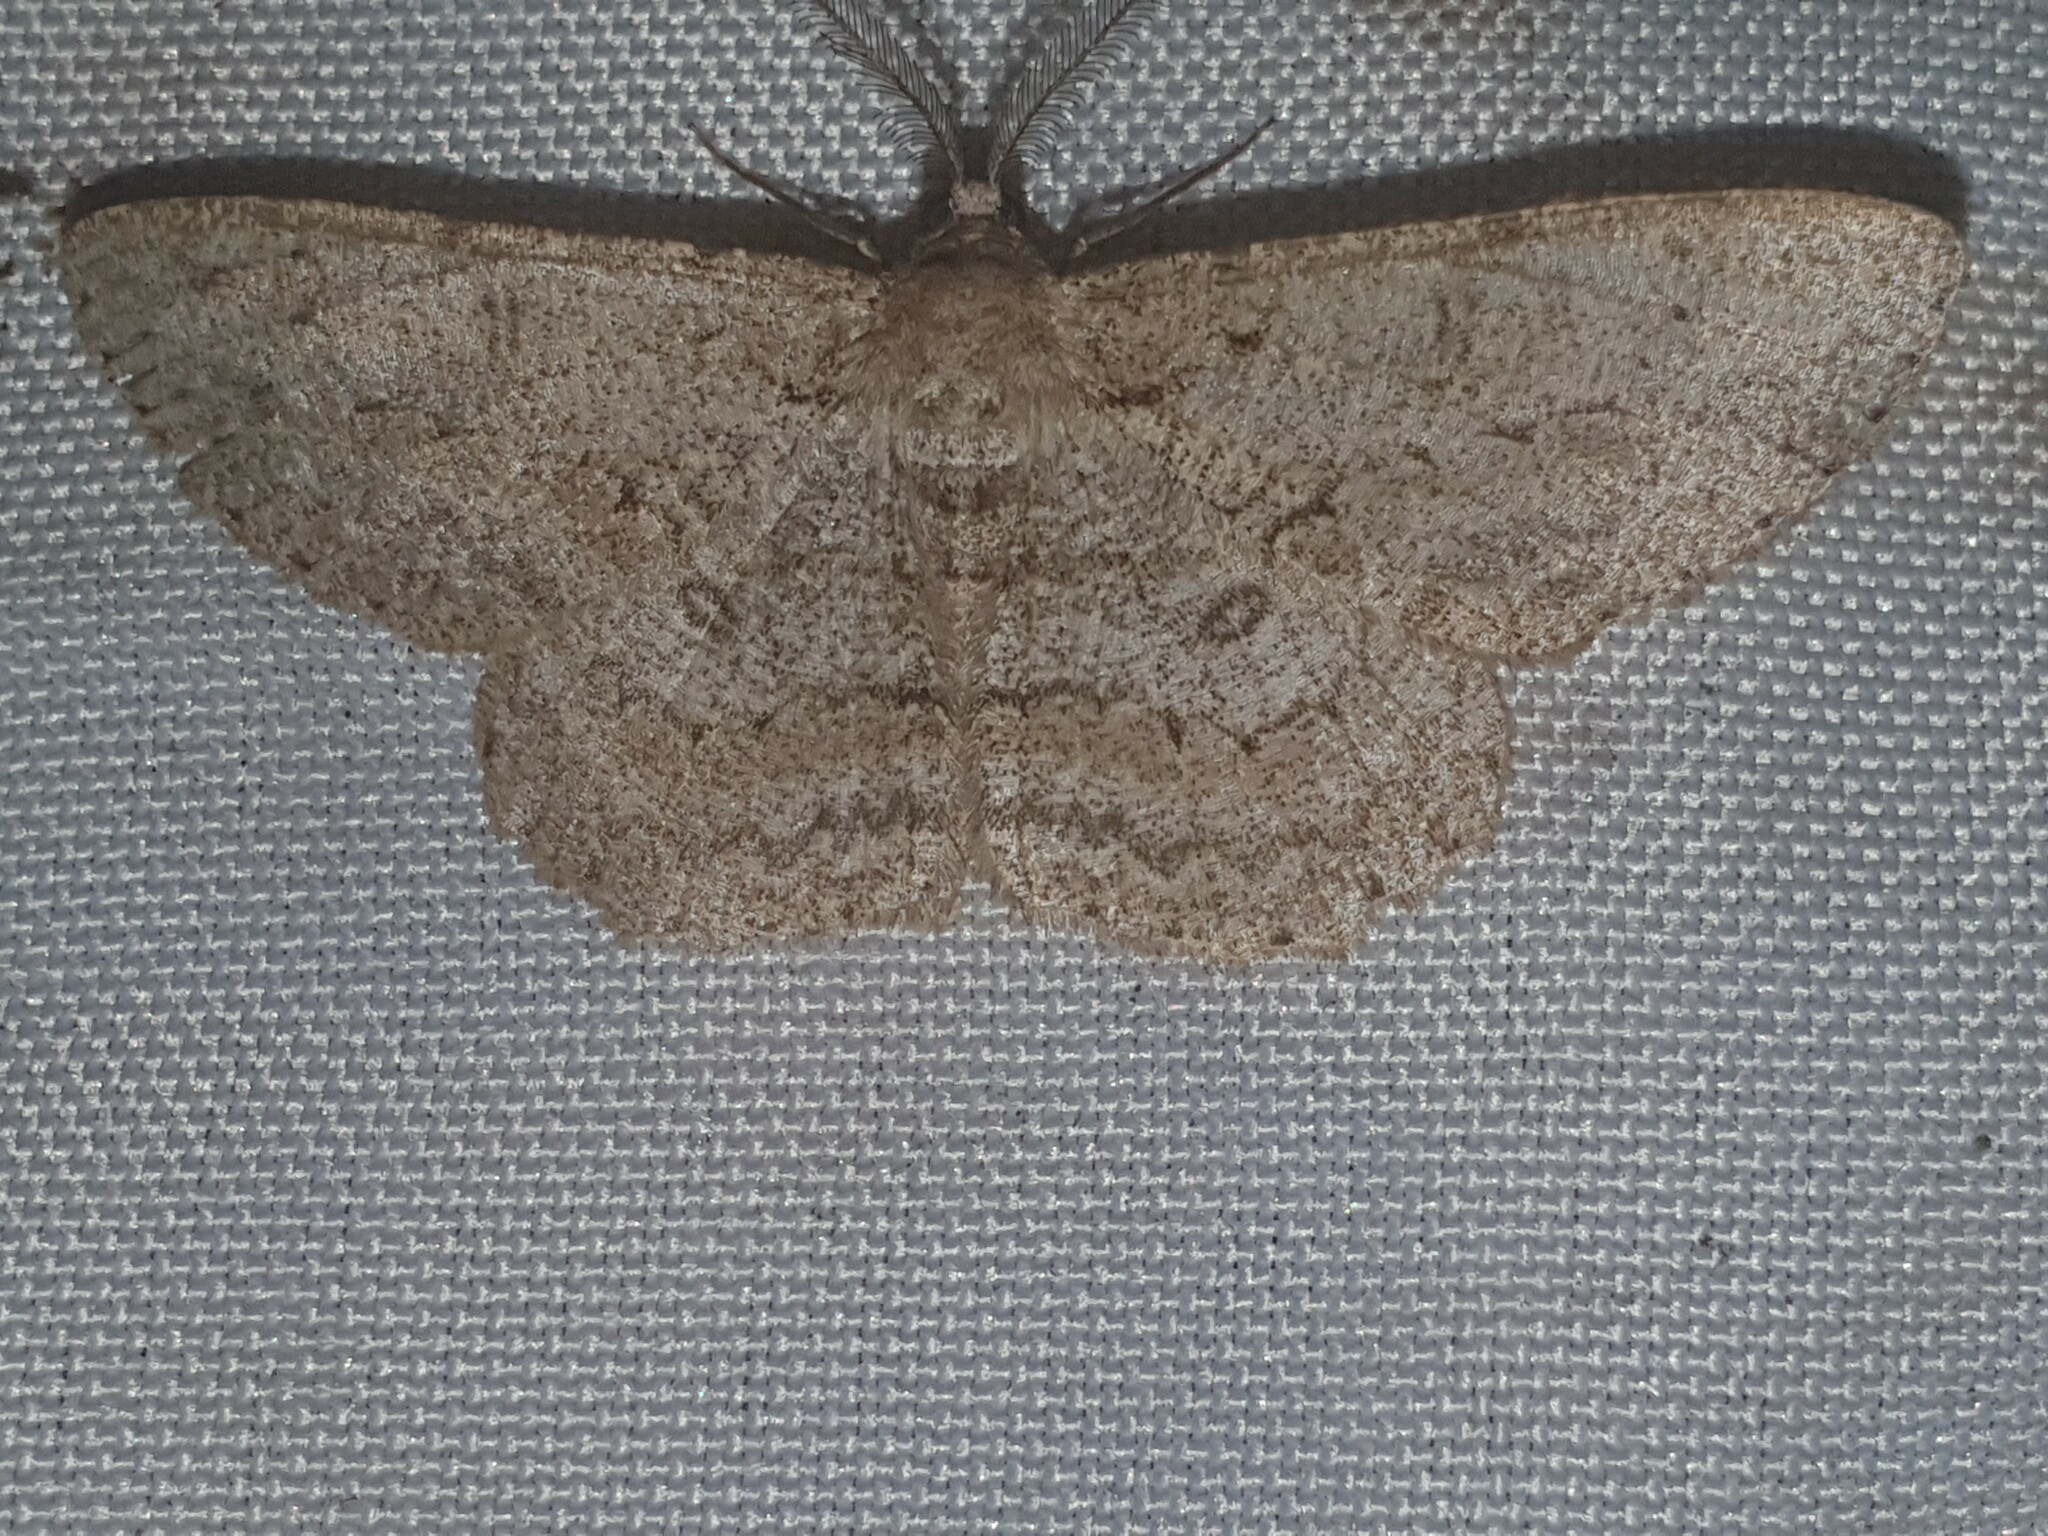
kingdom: Animalia
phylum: Arthropoda
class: Insecta
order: Lepidoptera
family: Geometridae
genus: Hypomecis
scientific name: Hypomecis punctinalis
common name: Pale oak beauty
